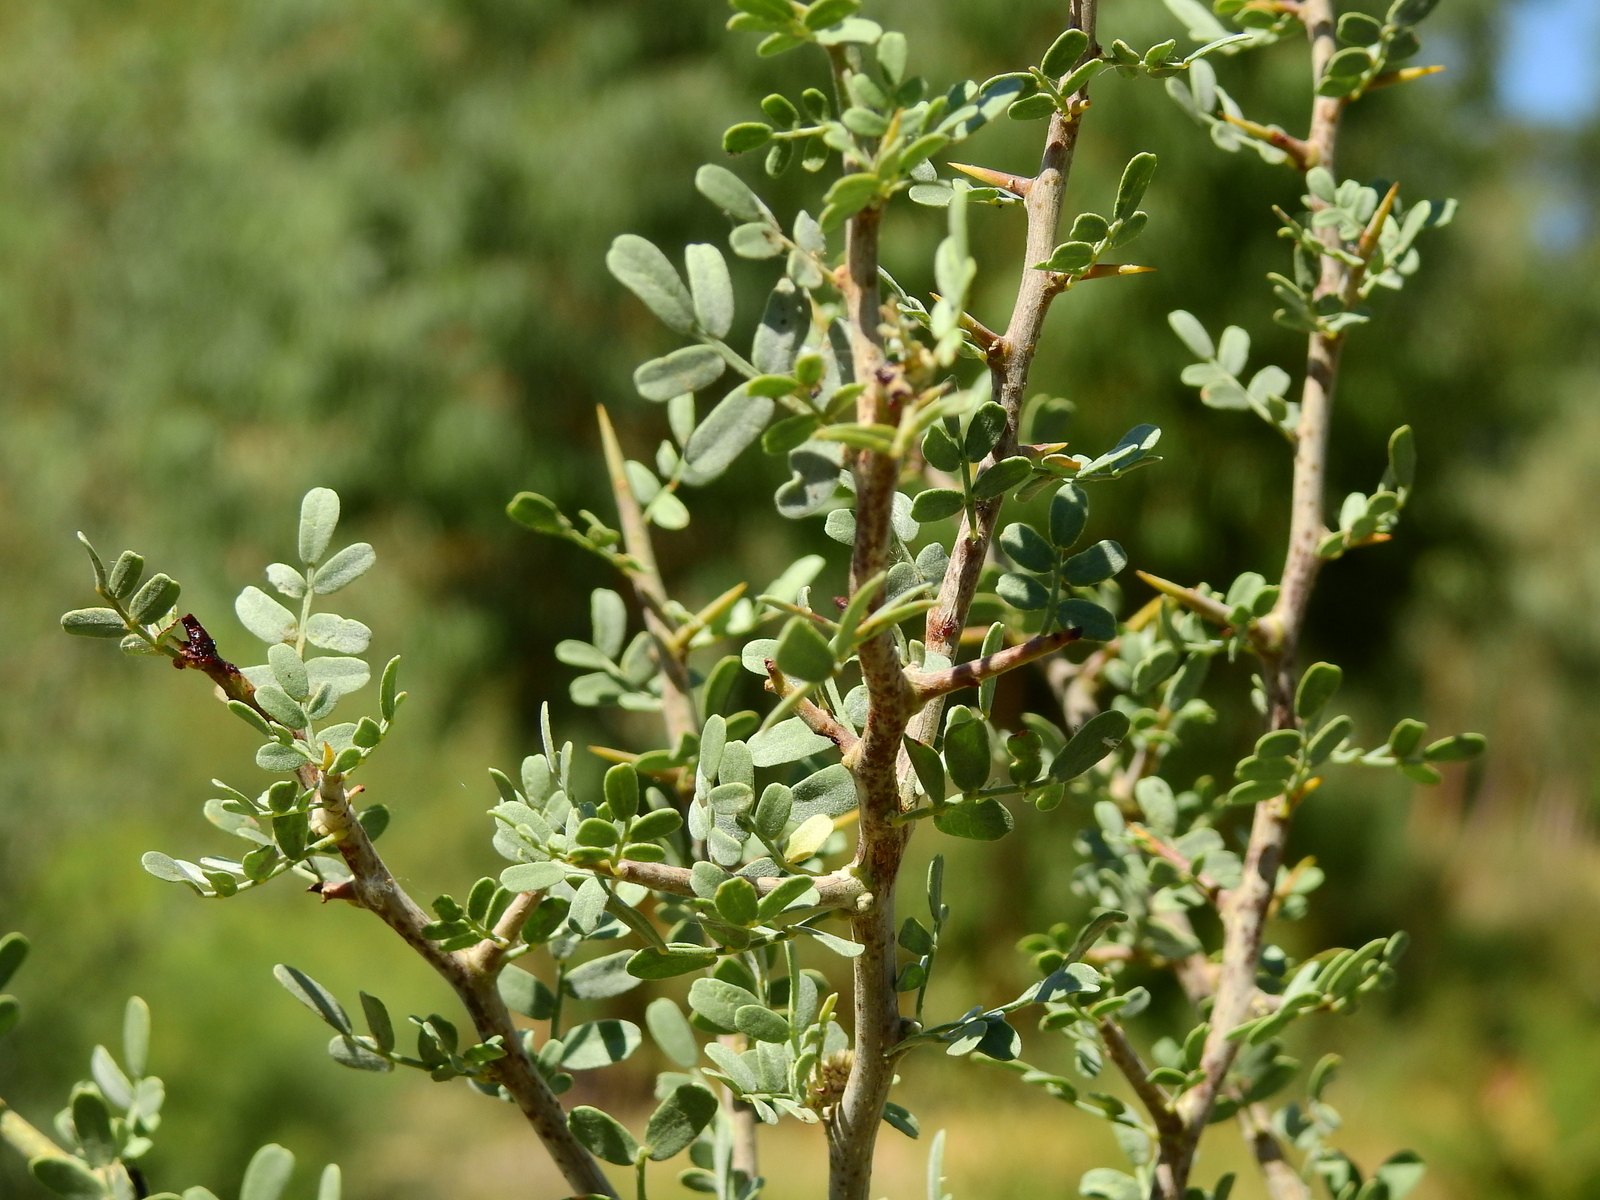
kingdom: Plantae
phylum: Tracheophyta
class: Magnoliopsida
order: Fabales
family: Fabaceae
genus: Geoffroea
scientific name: Geoffroea decorticans
